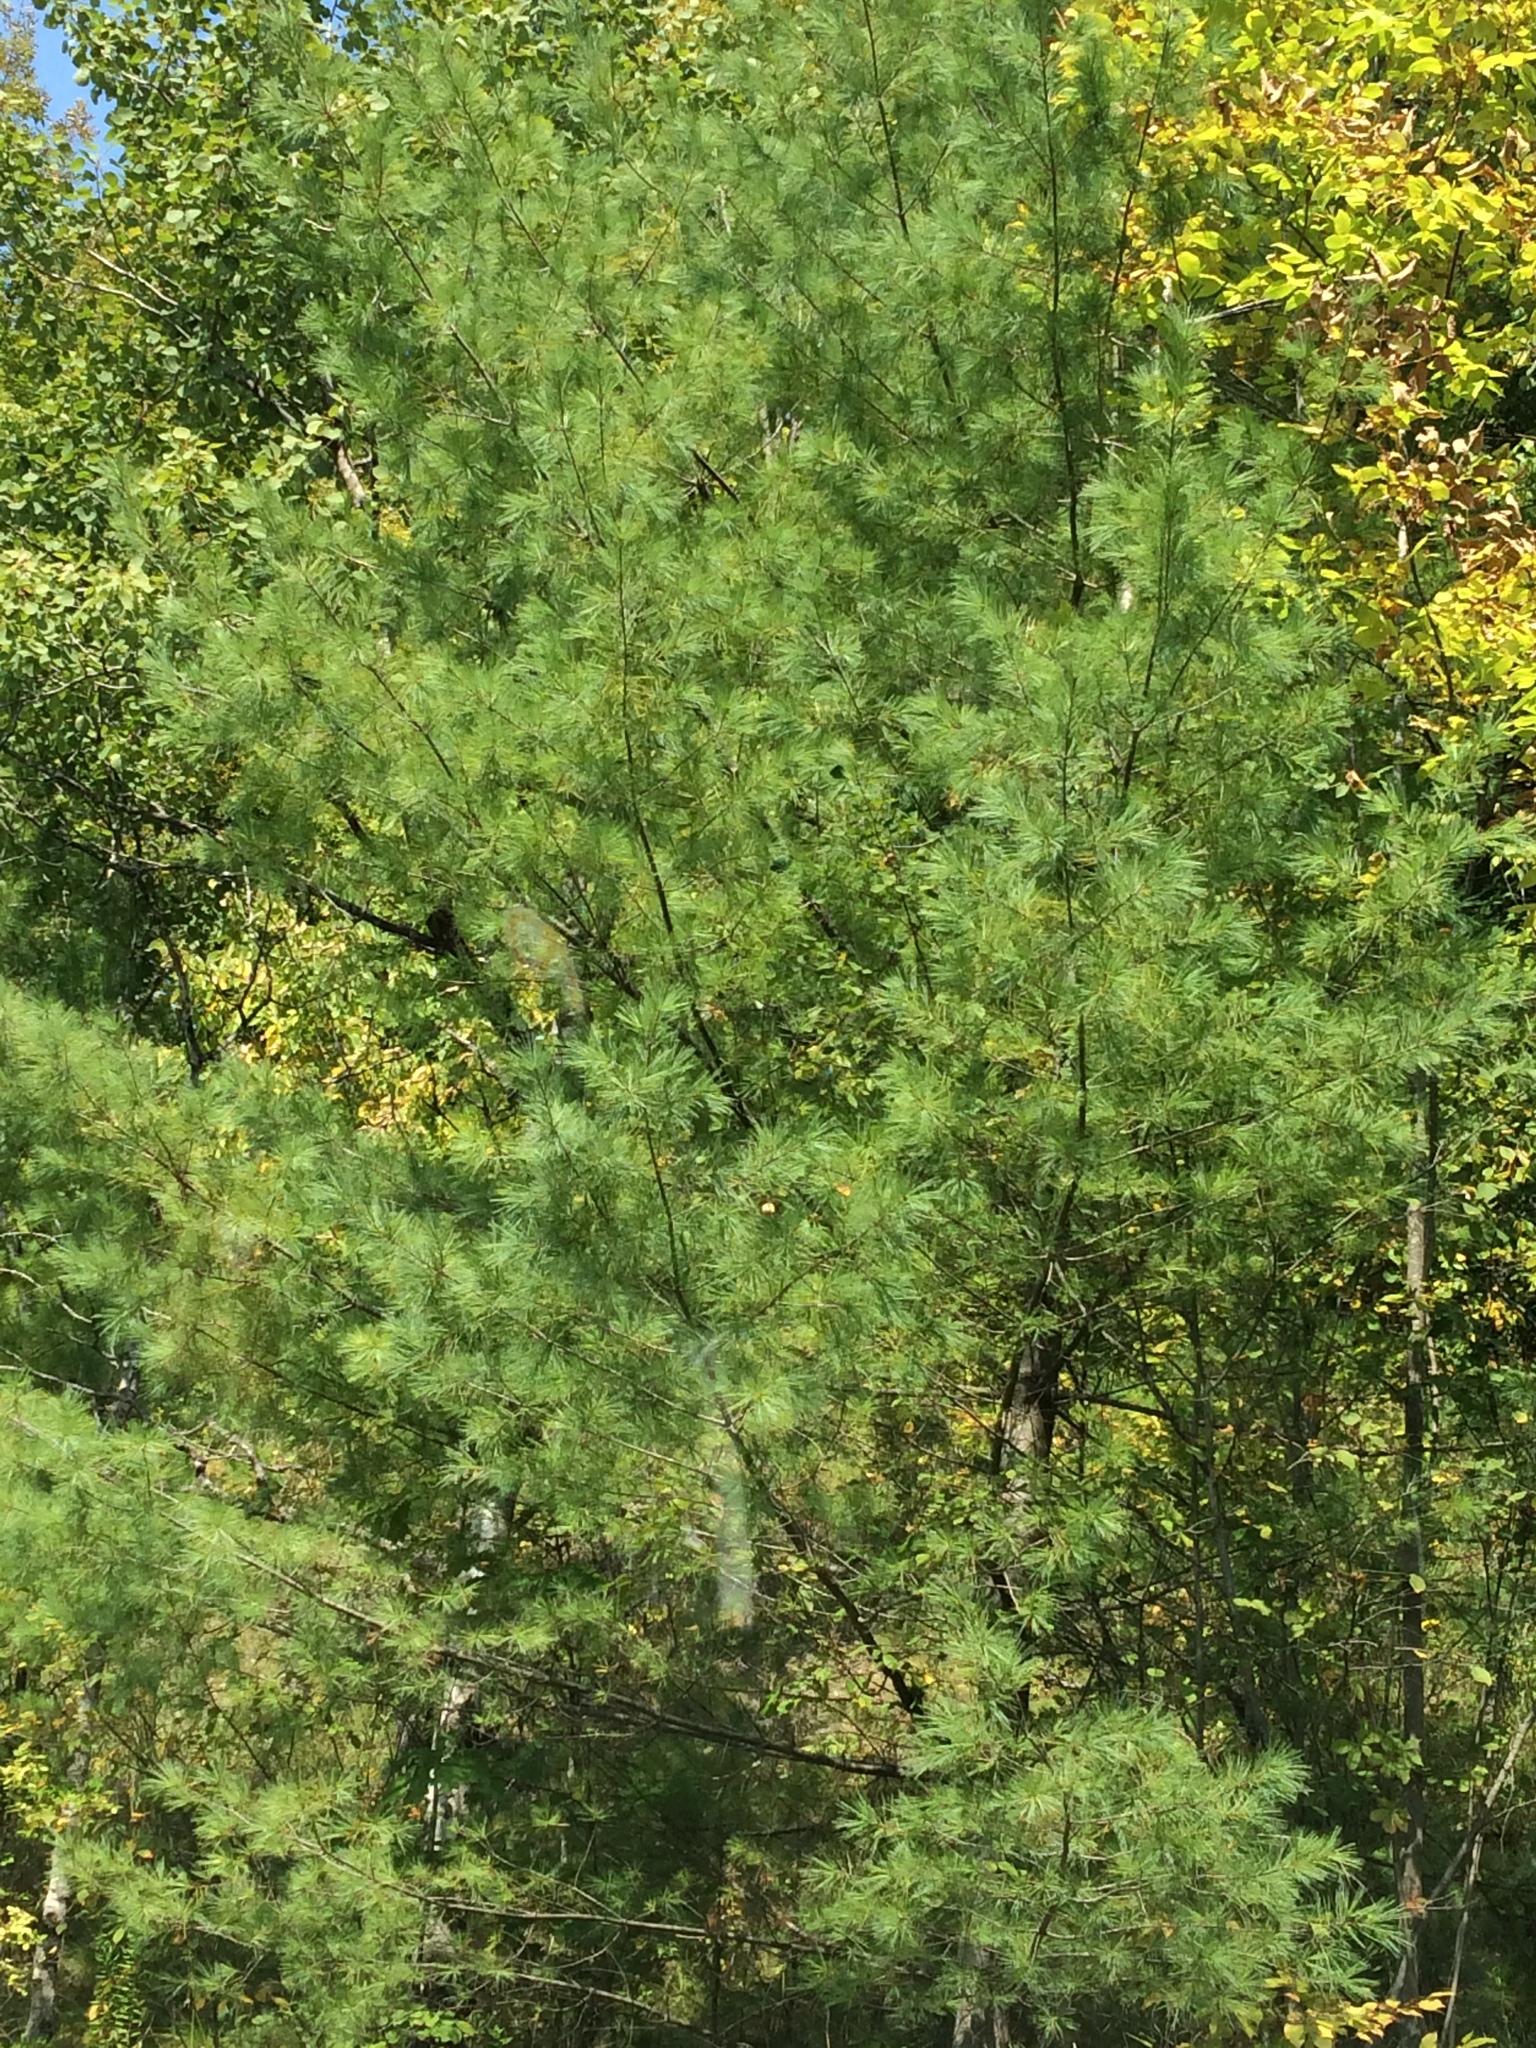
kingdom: Plantae
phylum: Tracheophyta
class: Pinopsida
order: Pinales
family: Pinaceae
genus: Pinus
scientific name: Pinus strobus
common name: Weymouth pine
